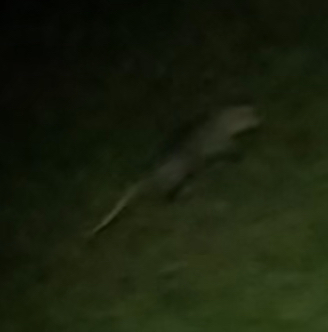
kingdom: Animalia
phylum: Chordata
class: Mammalia
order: Didelphimorphia
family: Didelphidae
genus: Didelphis
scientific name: Didelphis virginiana
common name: Virginia opossum
